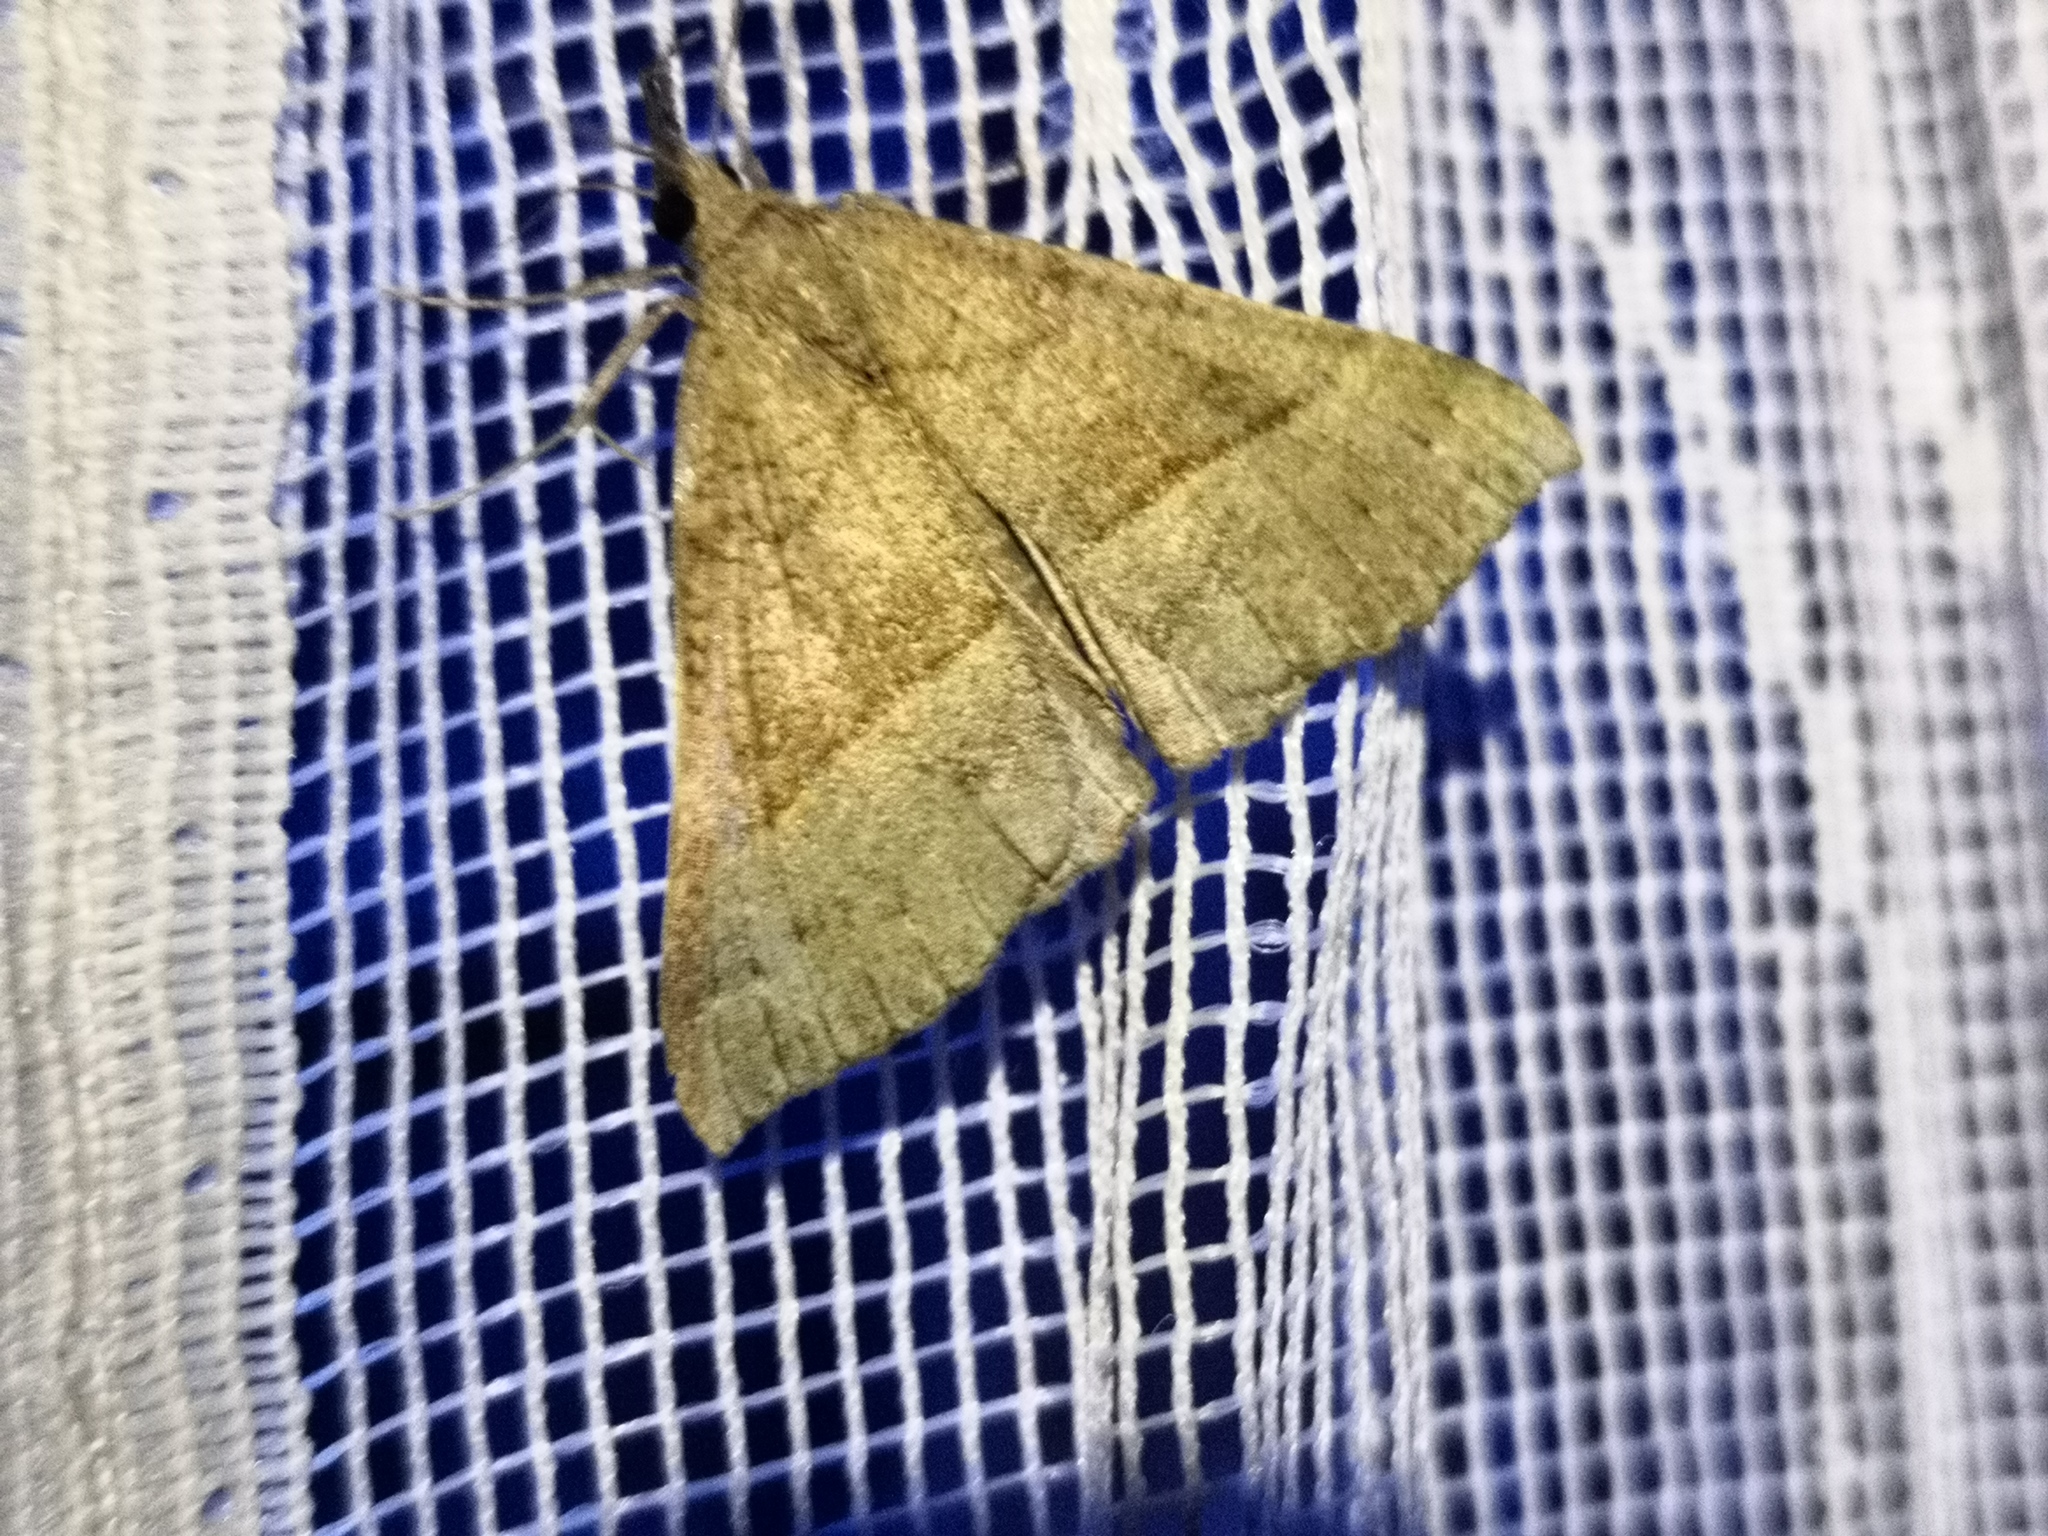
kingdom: Animalia
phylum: Arthropoda
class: Insecta
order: Lepidoptera
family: Erebidae
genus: Hypena
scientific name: Hypena proboscidalis
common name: Snout
